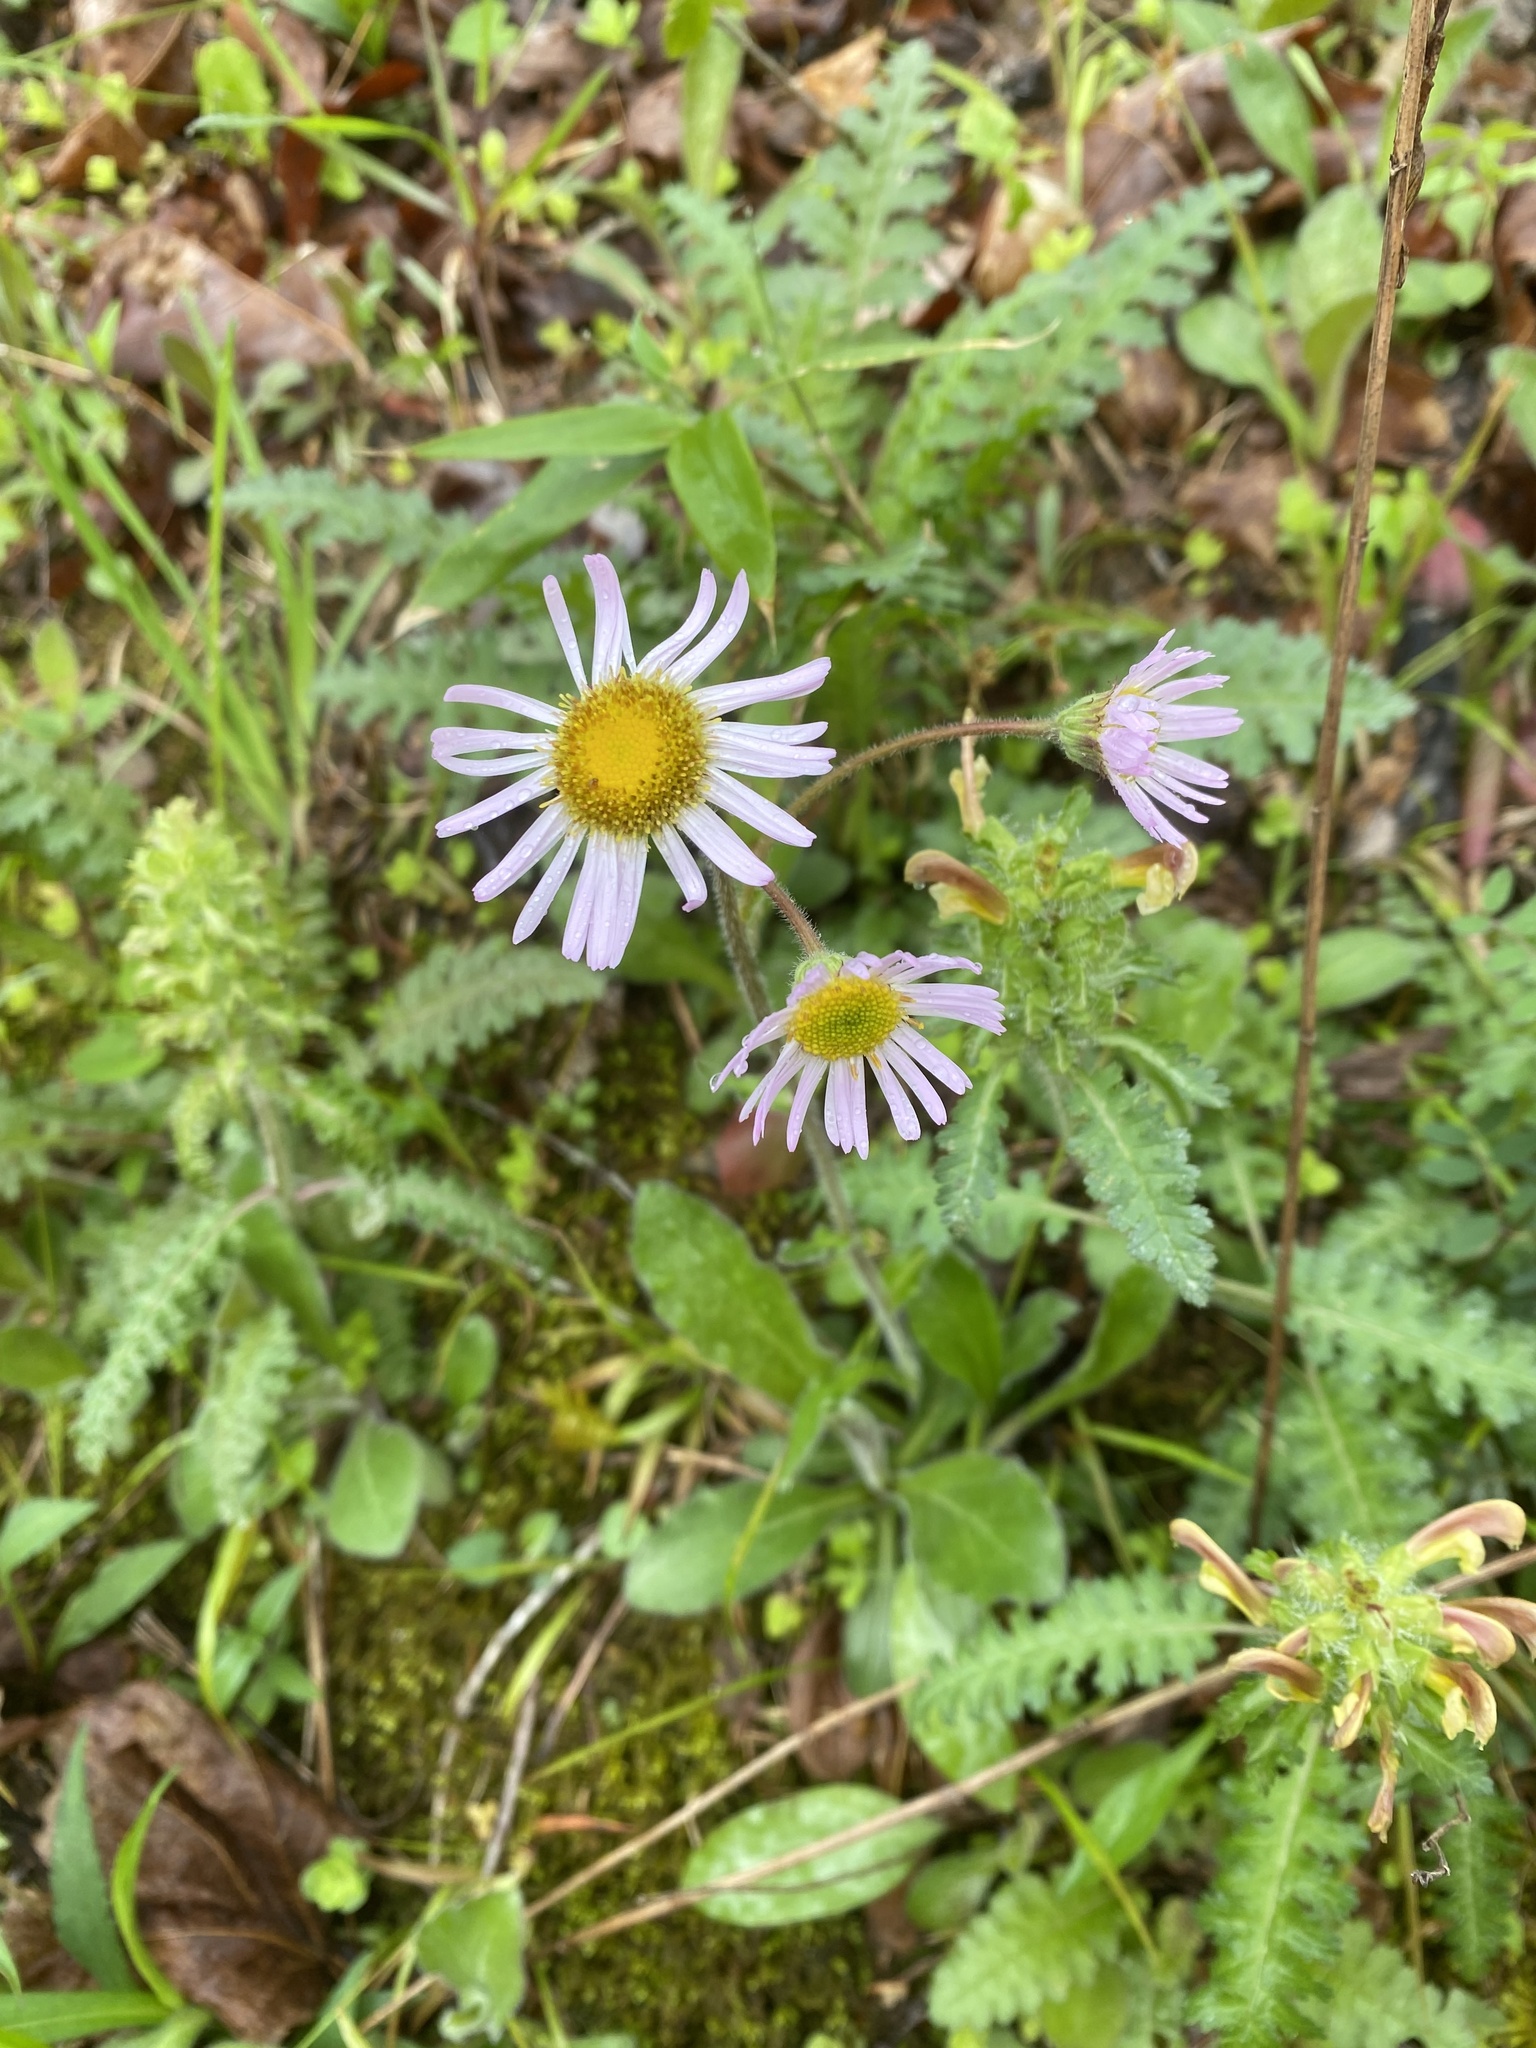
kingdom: Plantae
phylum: Tracheophyta
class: Magnoliopsida
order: Asterales
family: Asteraceae
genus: Erigeron
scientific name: Erigeron pulchellus
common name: Hairy fleabane
